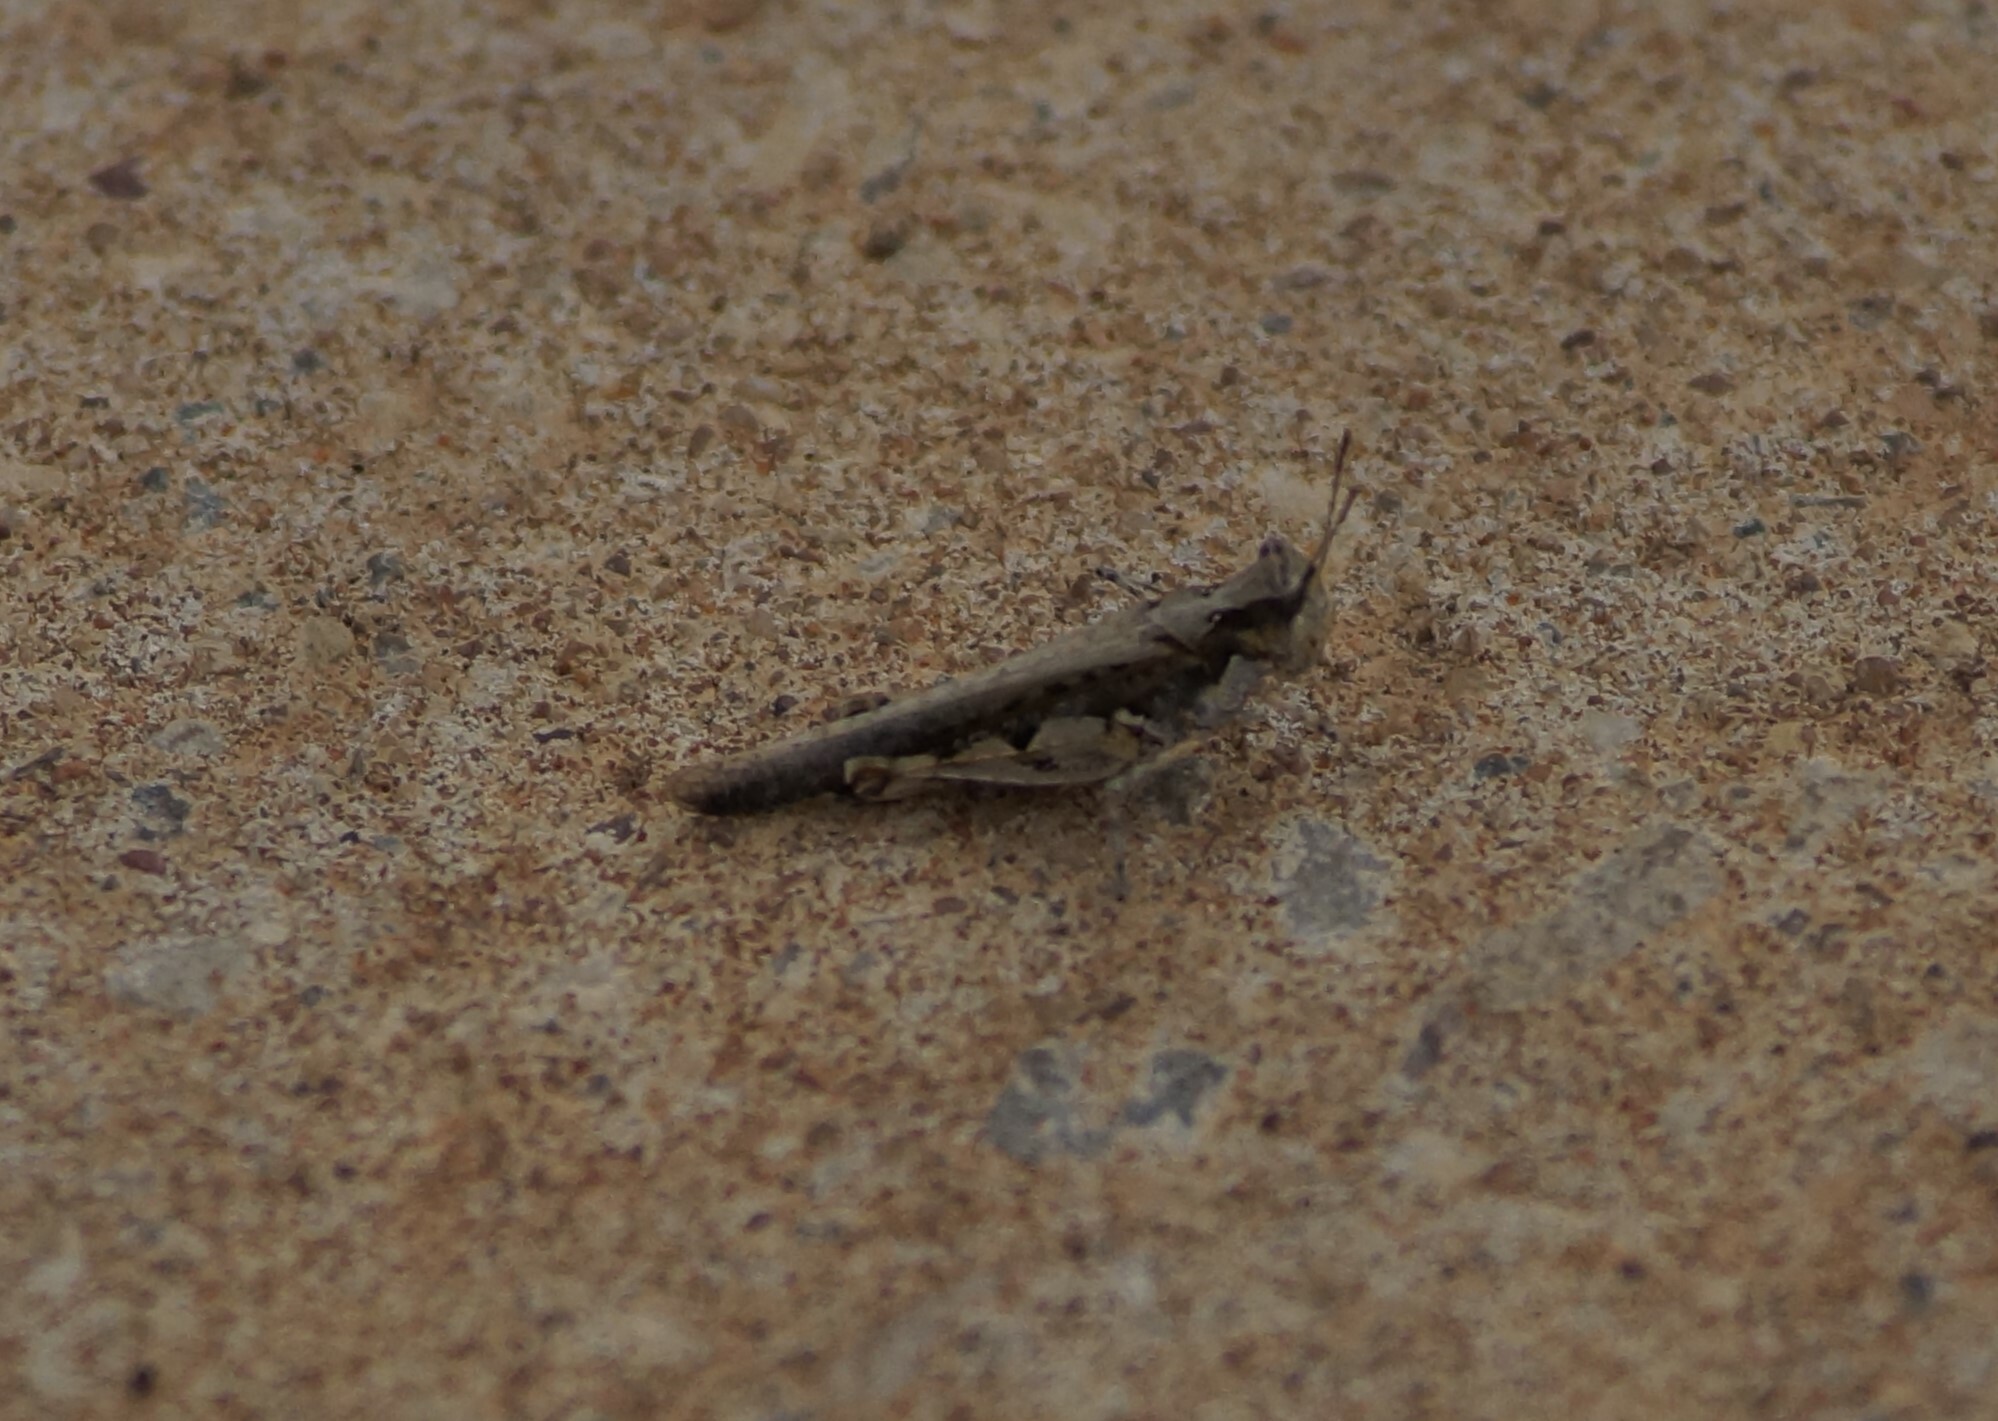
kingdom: Animalia
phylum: Arthropoda
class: Insecta
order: Orthoptera
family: Acrididae
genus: Pycnostictus
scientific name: Pycnostictus seriatus
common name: Common bandwing
